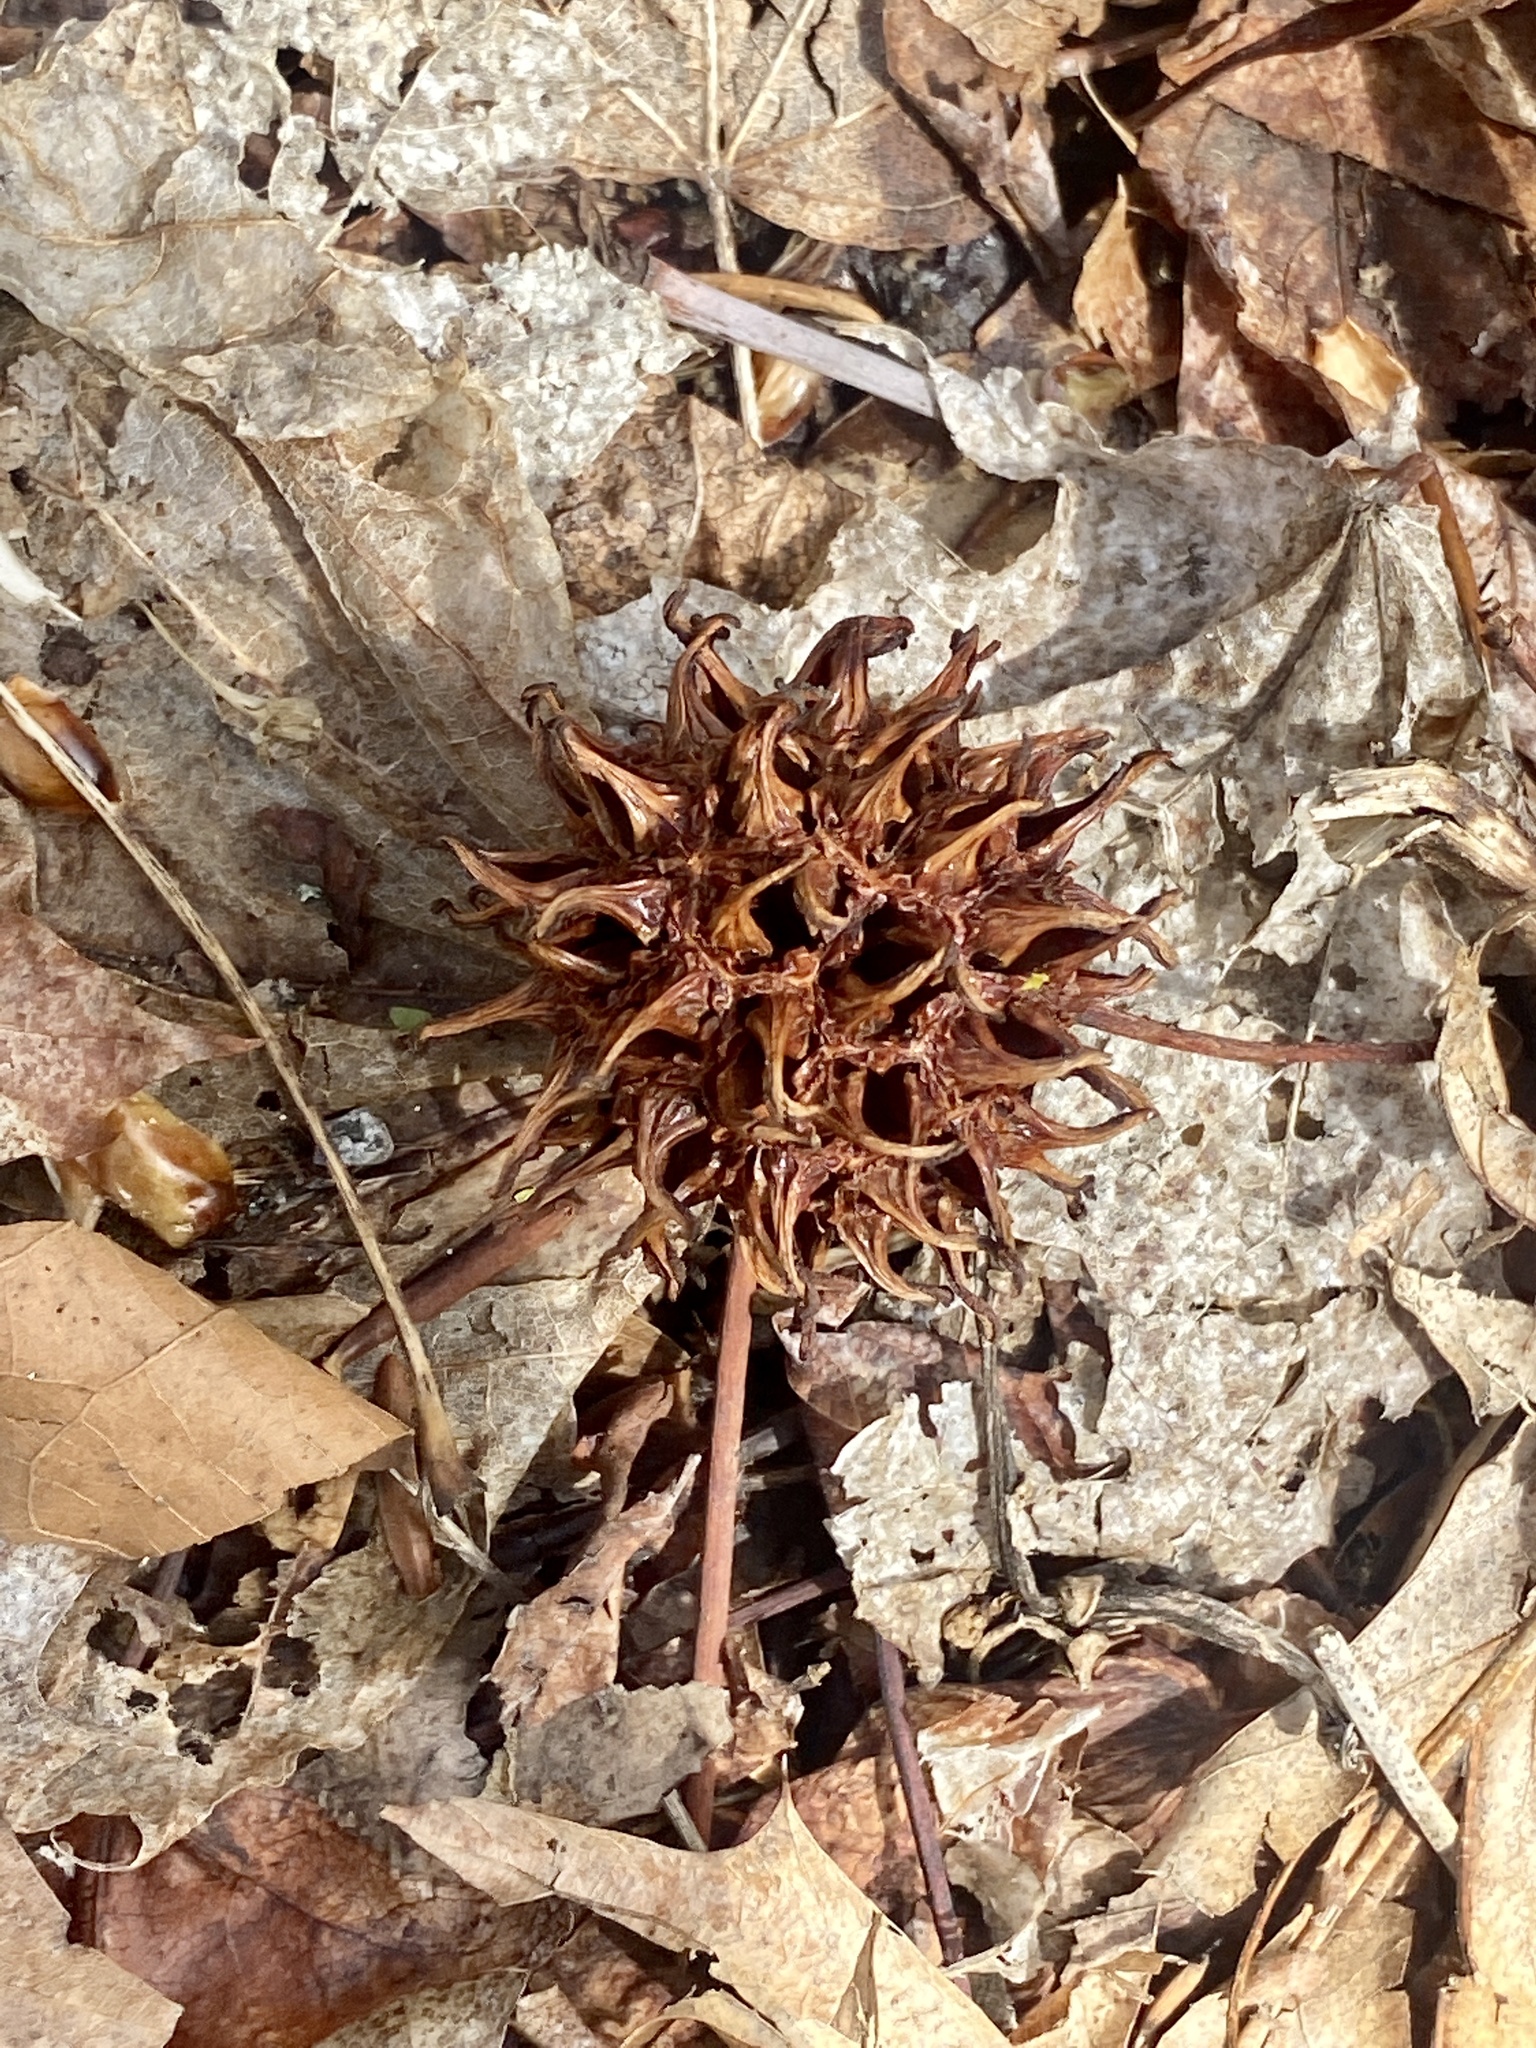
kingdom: Plantae
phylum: Tracheophyta
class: Magnoliopsida
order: Saxifragales
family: Altingiaceae
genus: Liquidambar
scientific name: Liquidambar styraciflua
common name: Sweet gum
